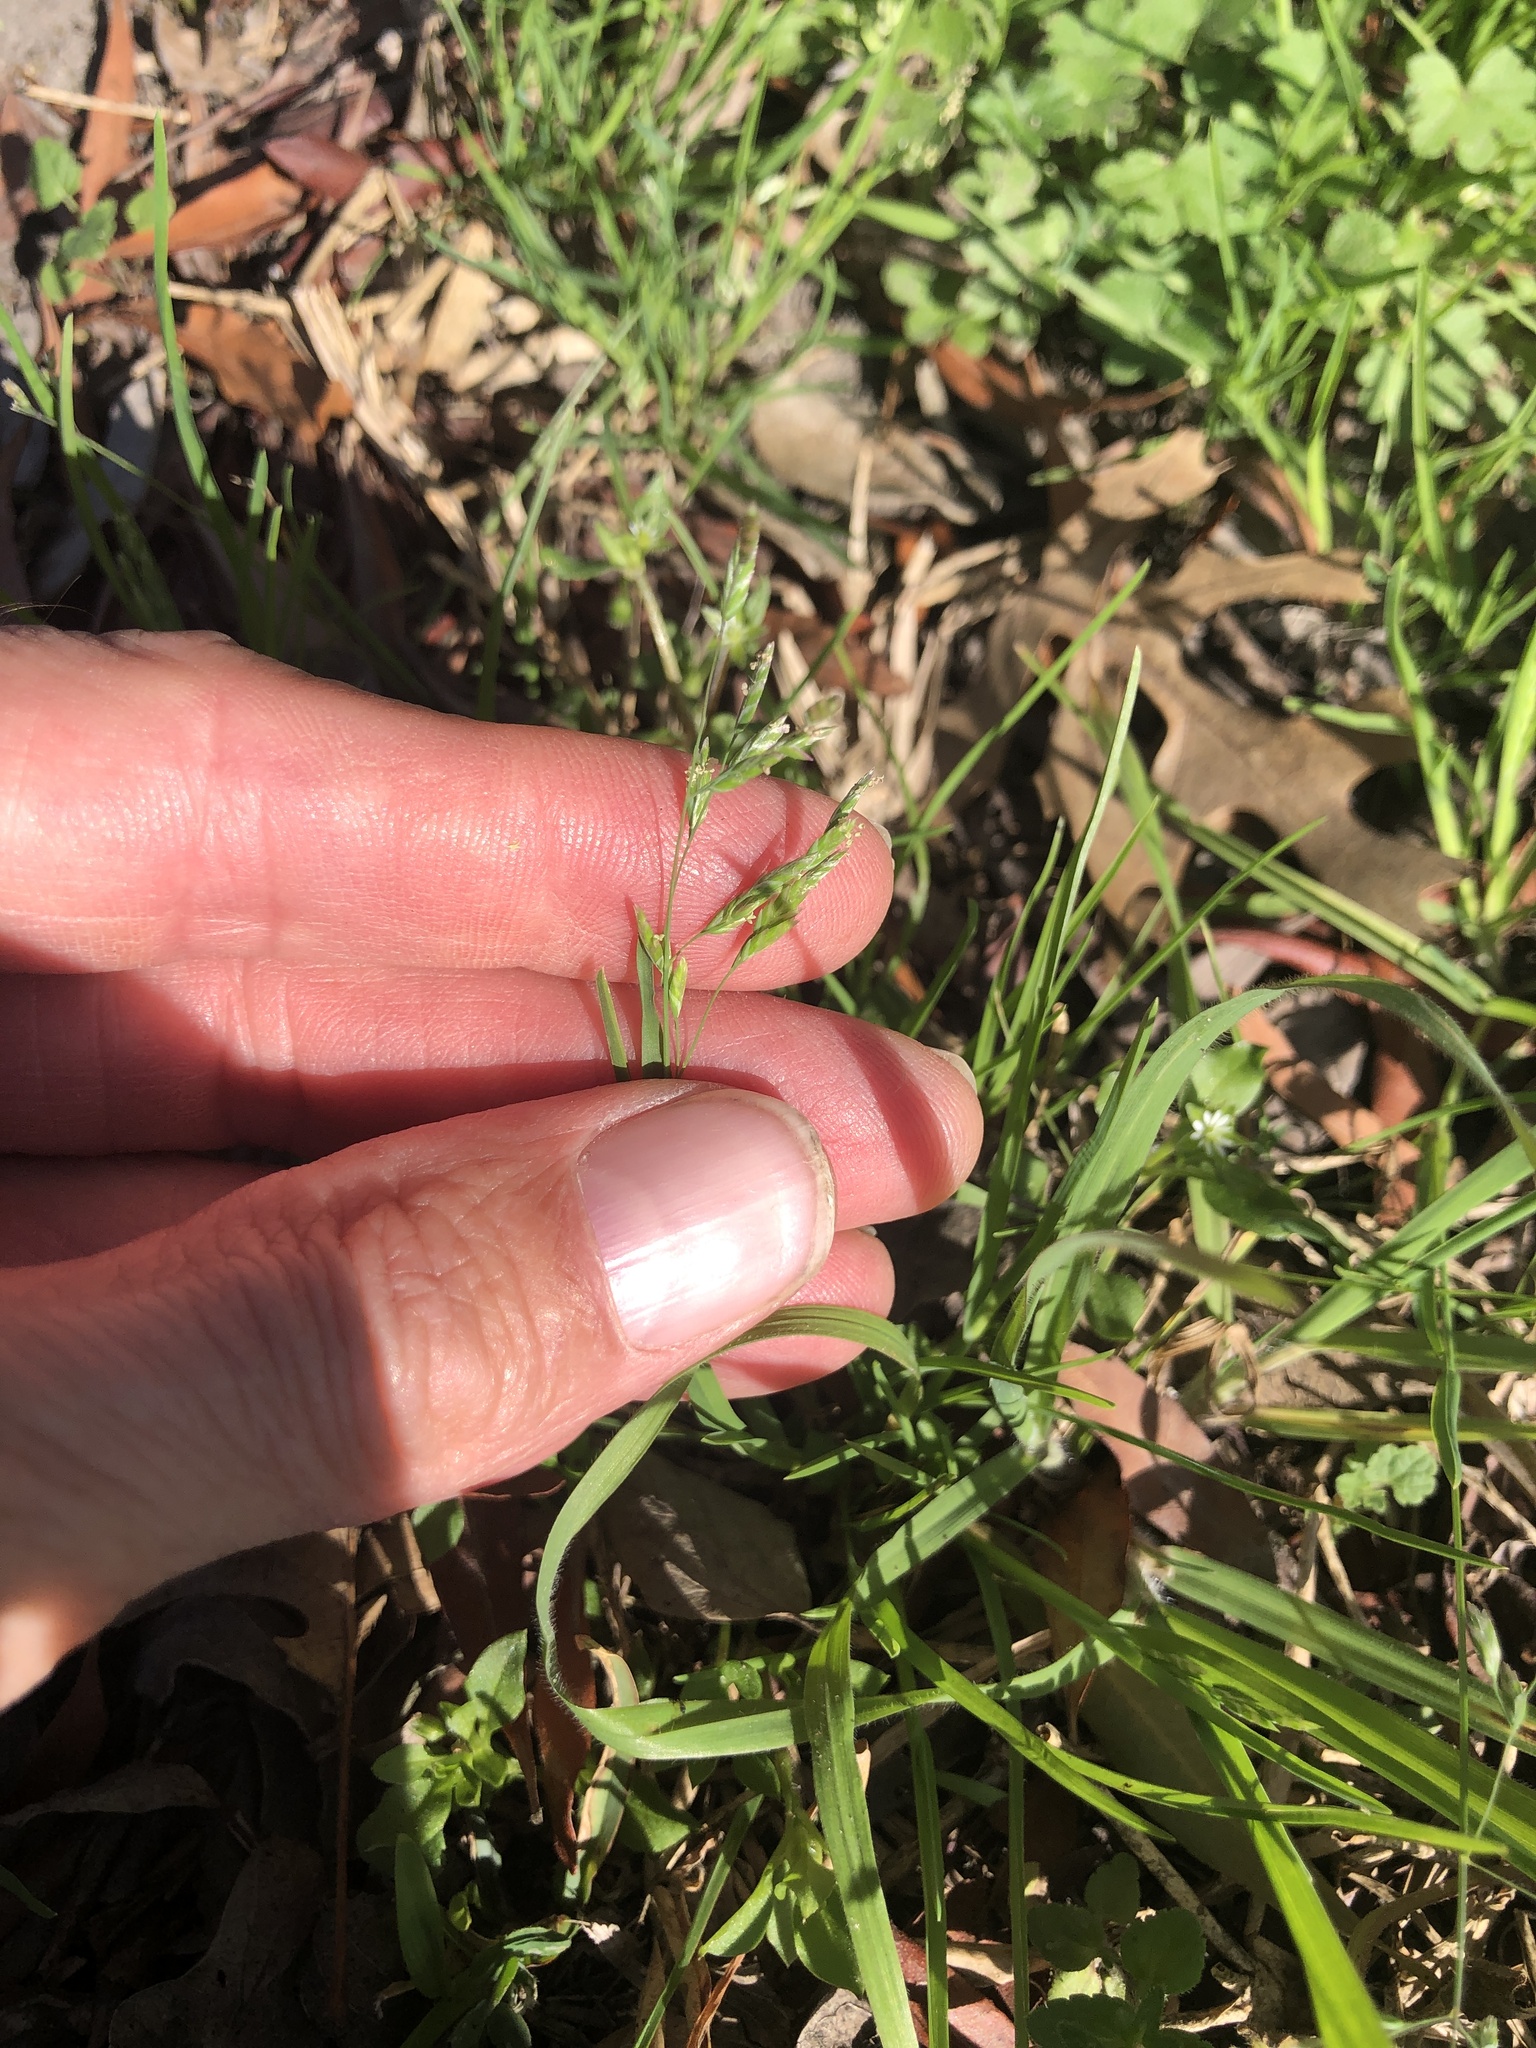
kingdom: Plantae
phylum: Tracheophyta
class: Liliopsida
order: Poales
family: Poaceae
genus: Poa
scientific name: Poa annua
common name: Annual bluegrass
